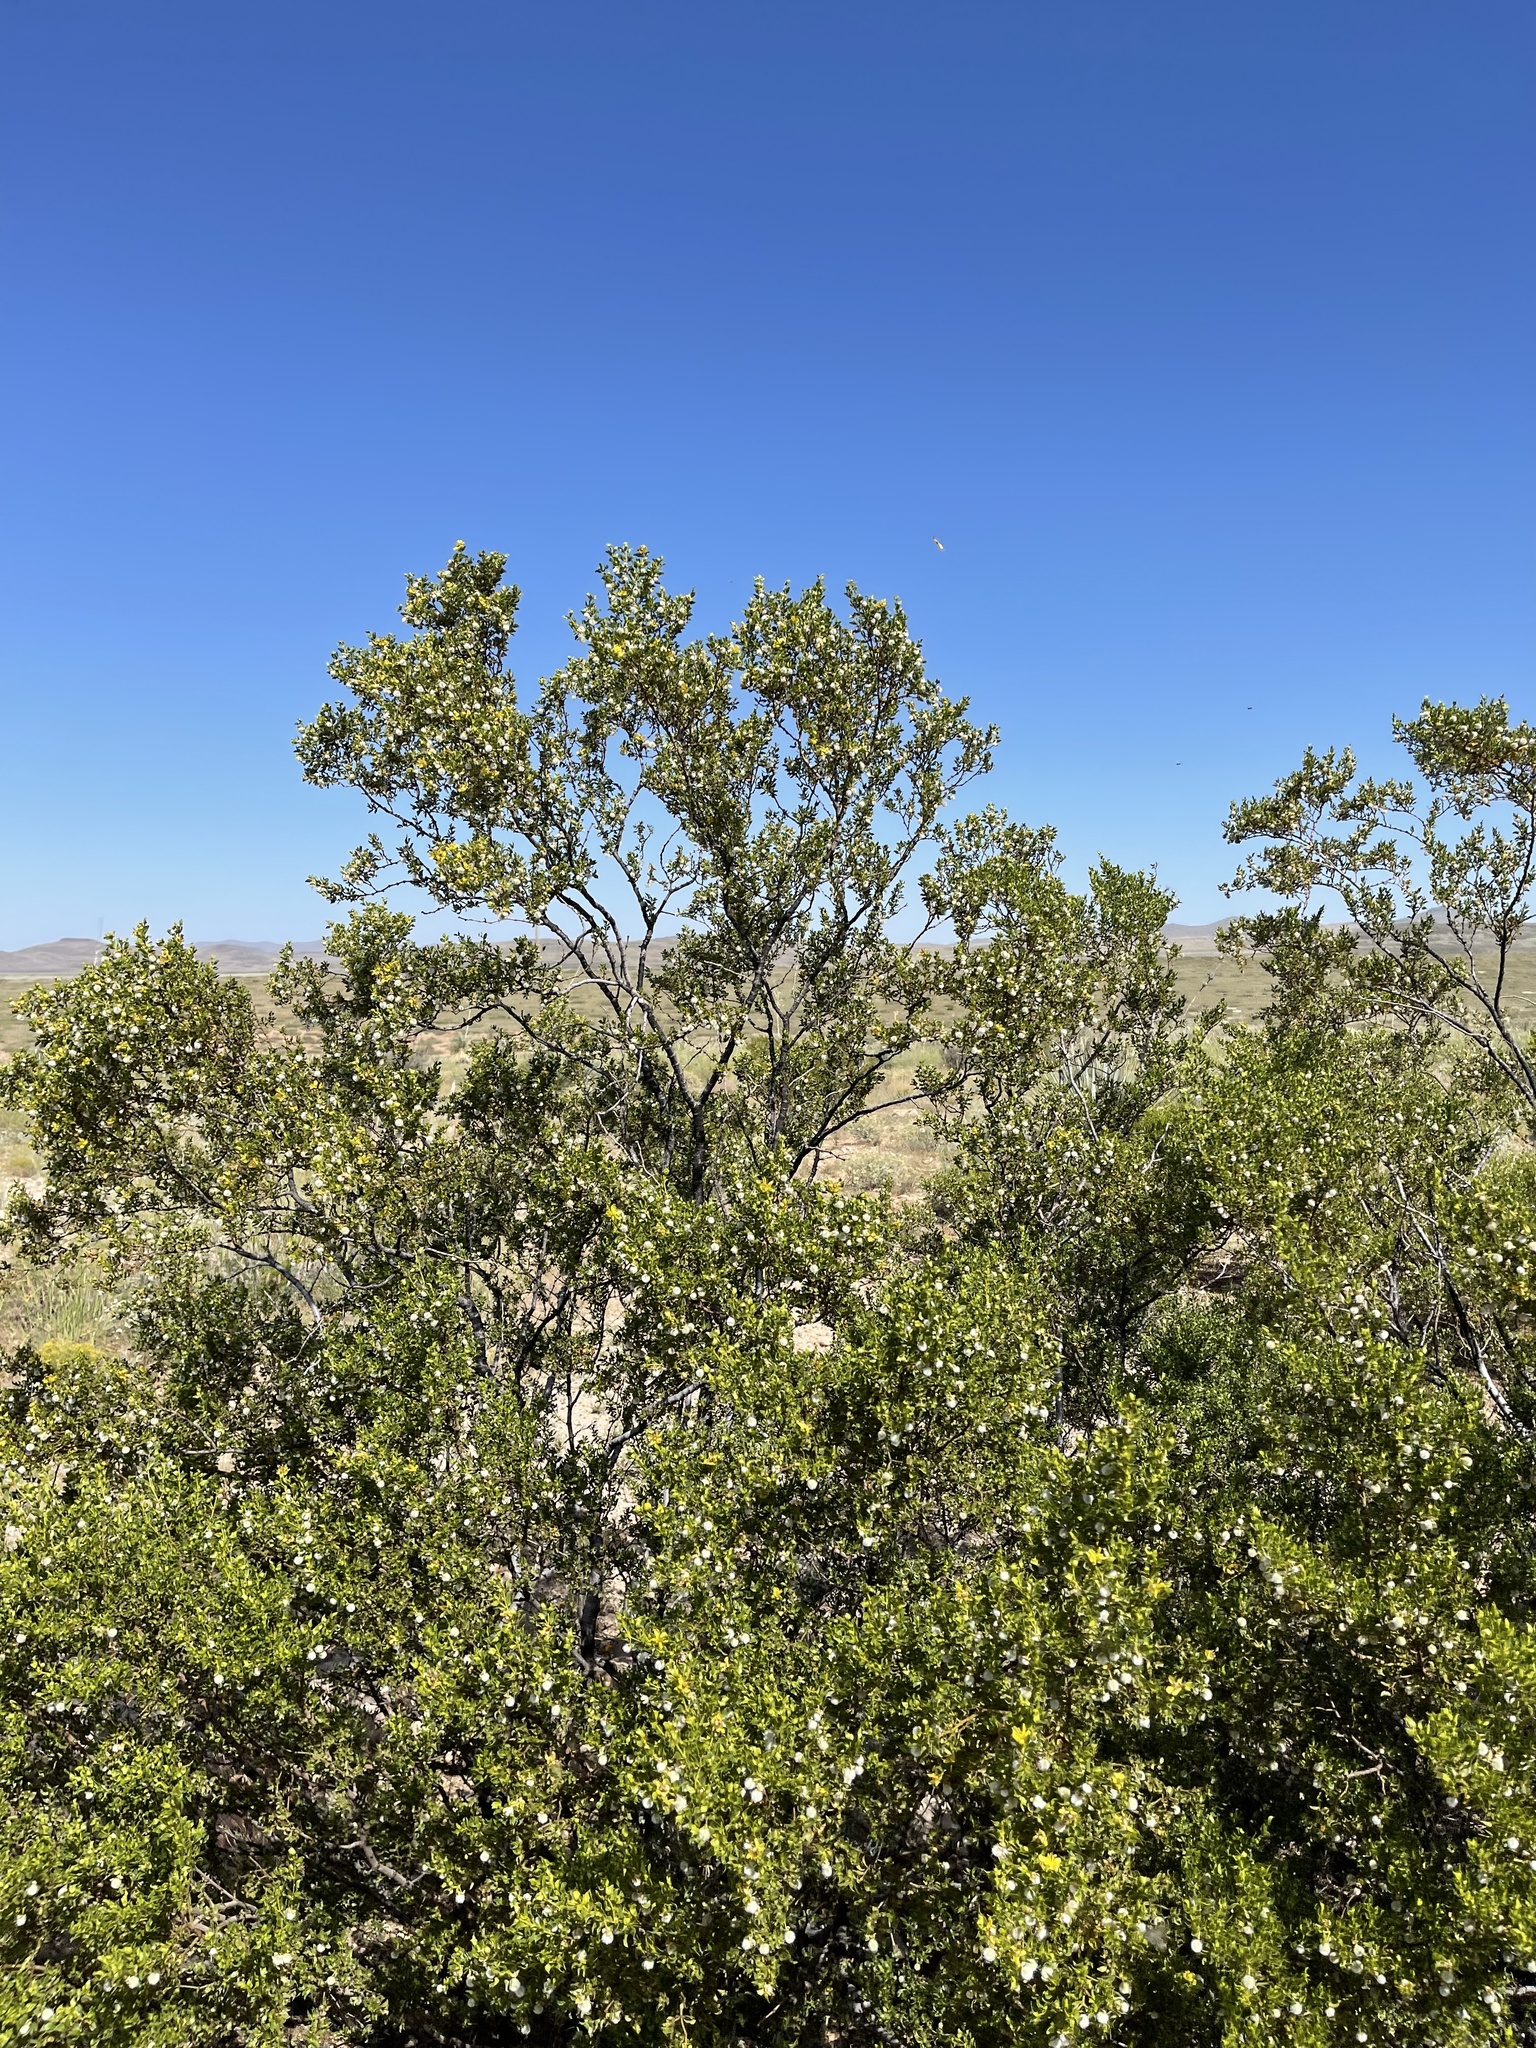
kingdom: Plantae
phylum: Tracheophyta
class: Magnoliopsida
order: Zygophyllales
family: Zygophyllaceae
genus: Larrea
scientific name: Larrea tridentata
